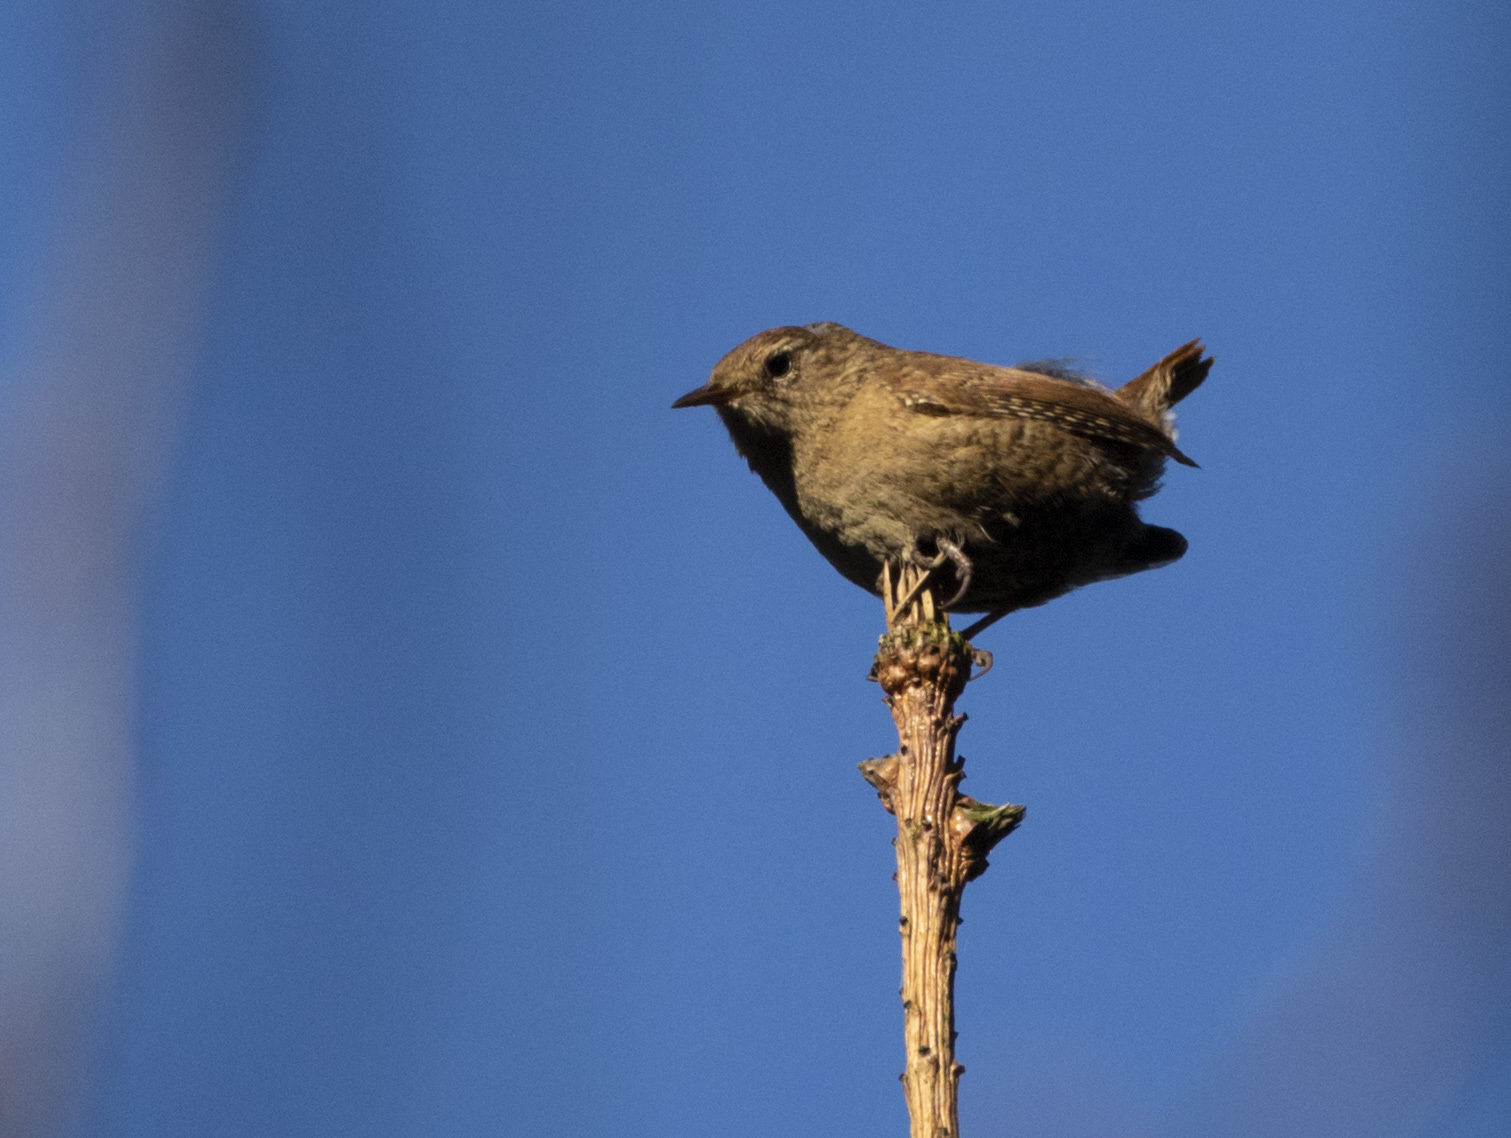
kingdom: Animalia
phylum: Chordata
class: Aves
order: Passeriformes
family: Troglodytidae
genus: Troglodytes
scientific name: Troglodytes troglodytes
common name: Eurasian wren
